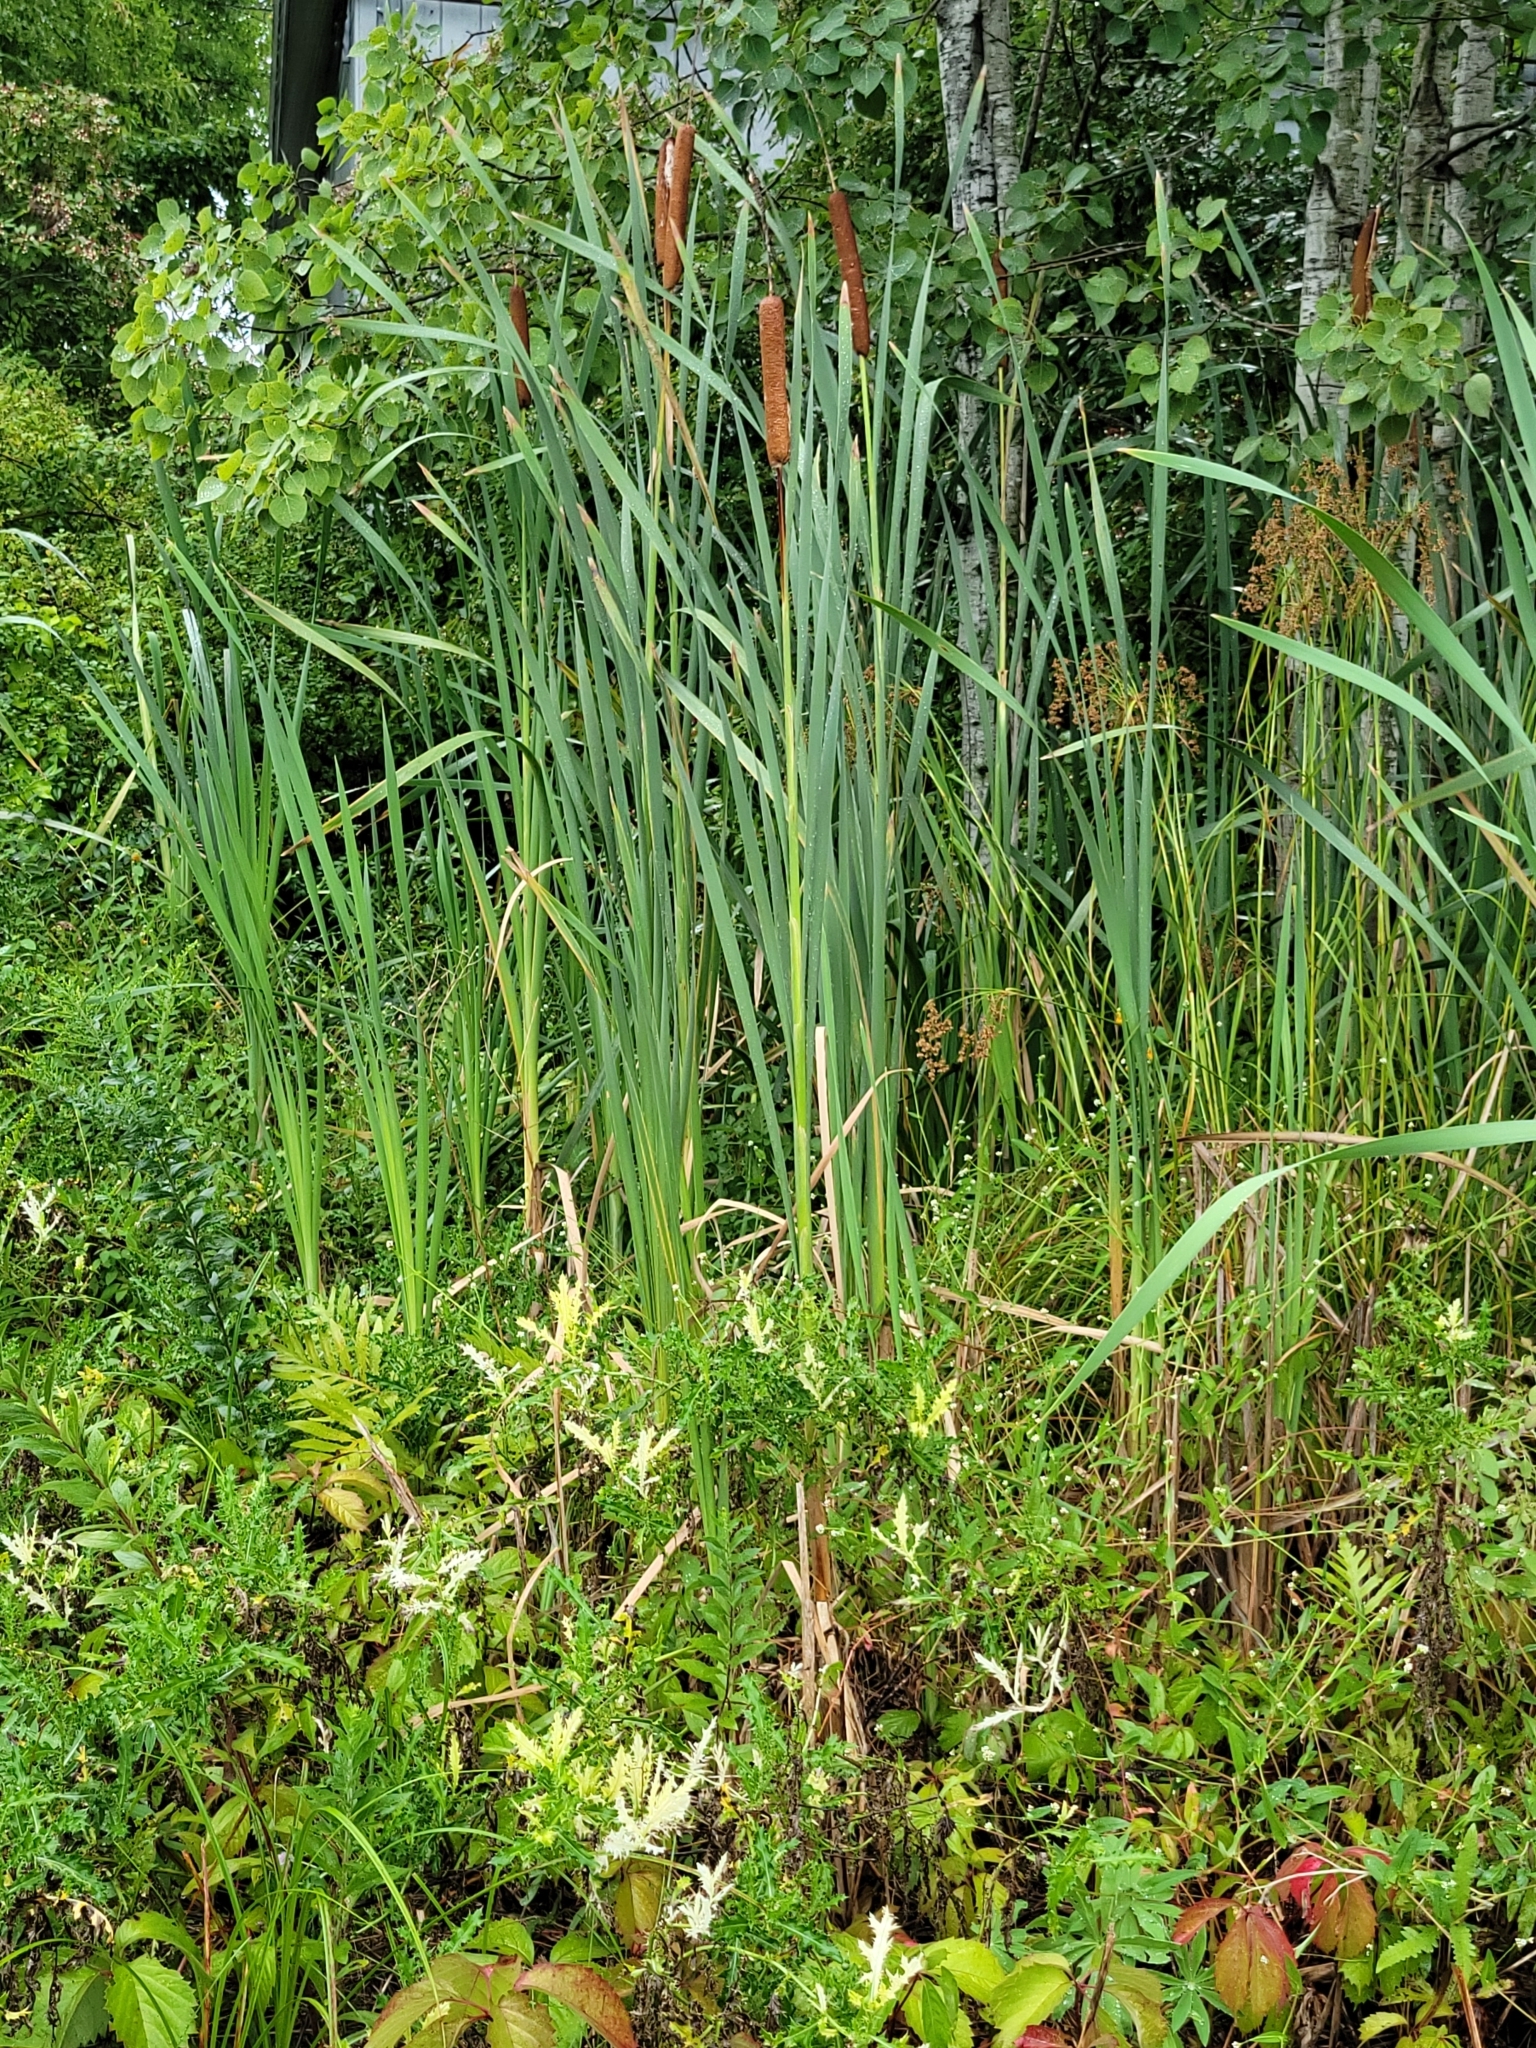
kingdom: Plantae
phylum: Tracheophyta
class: Liliopsida
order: Poales
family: Typhaceae
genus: Typha
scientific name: Typha latifolia
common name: Broadleaf cattail
